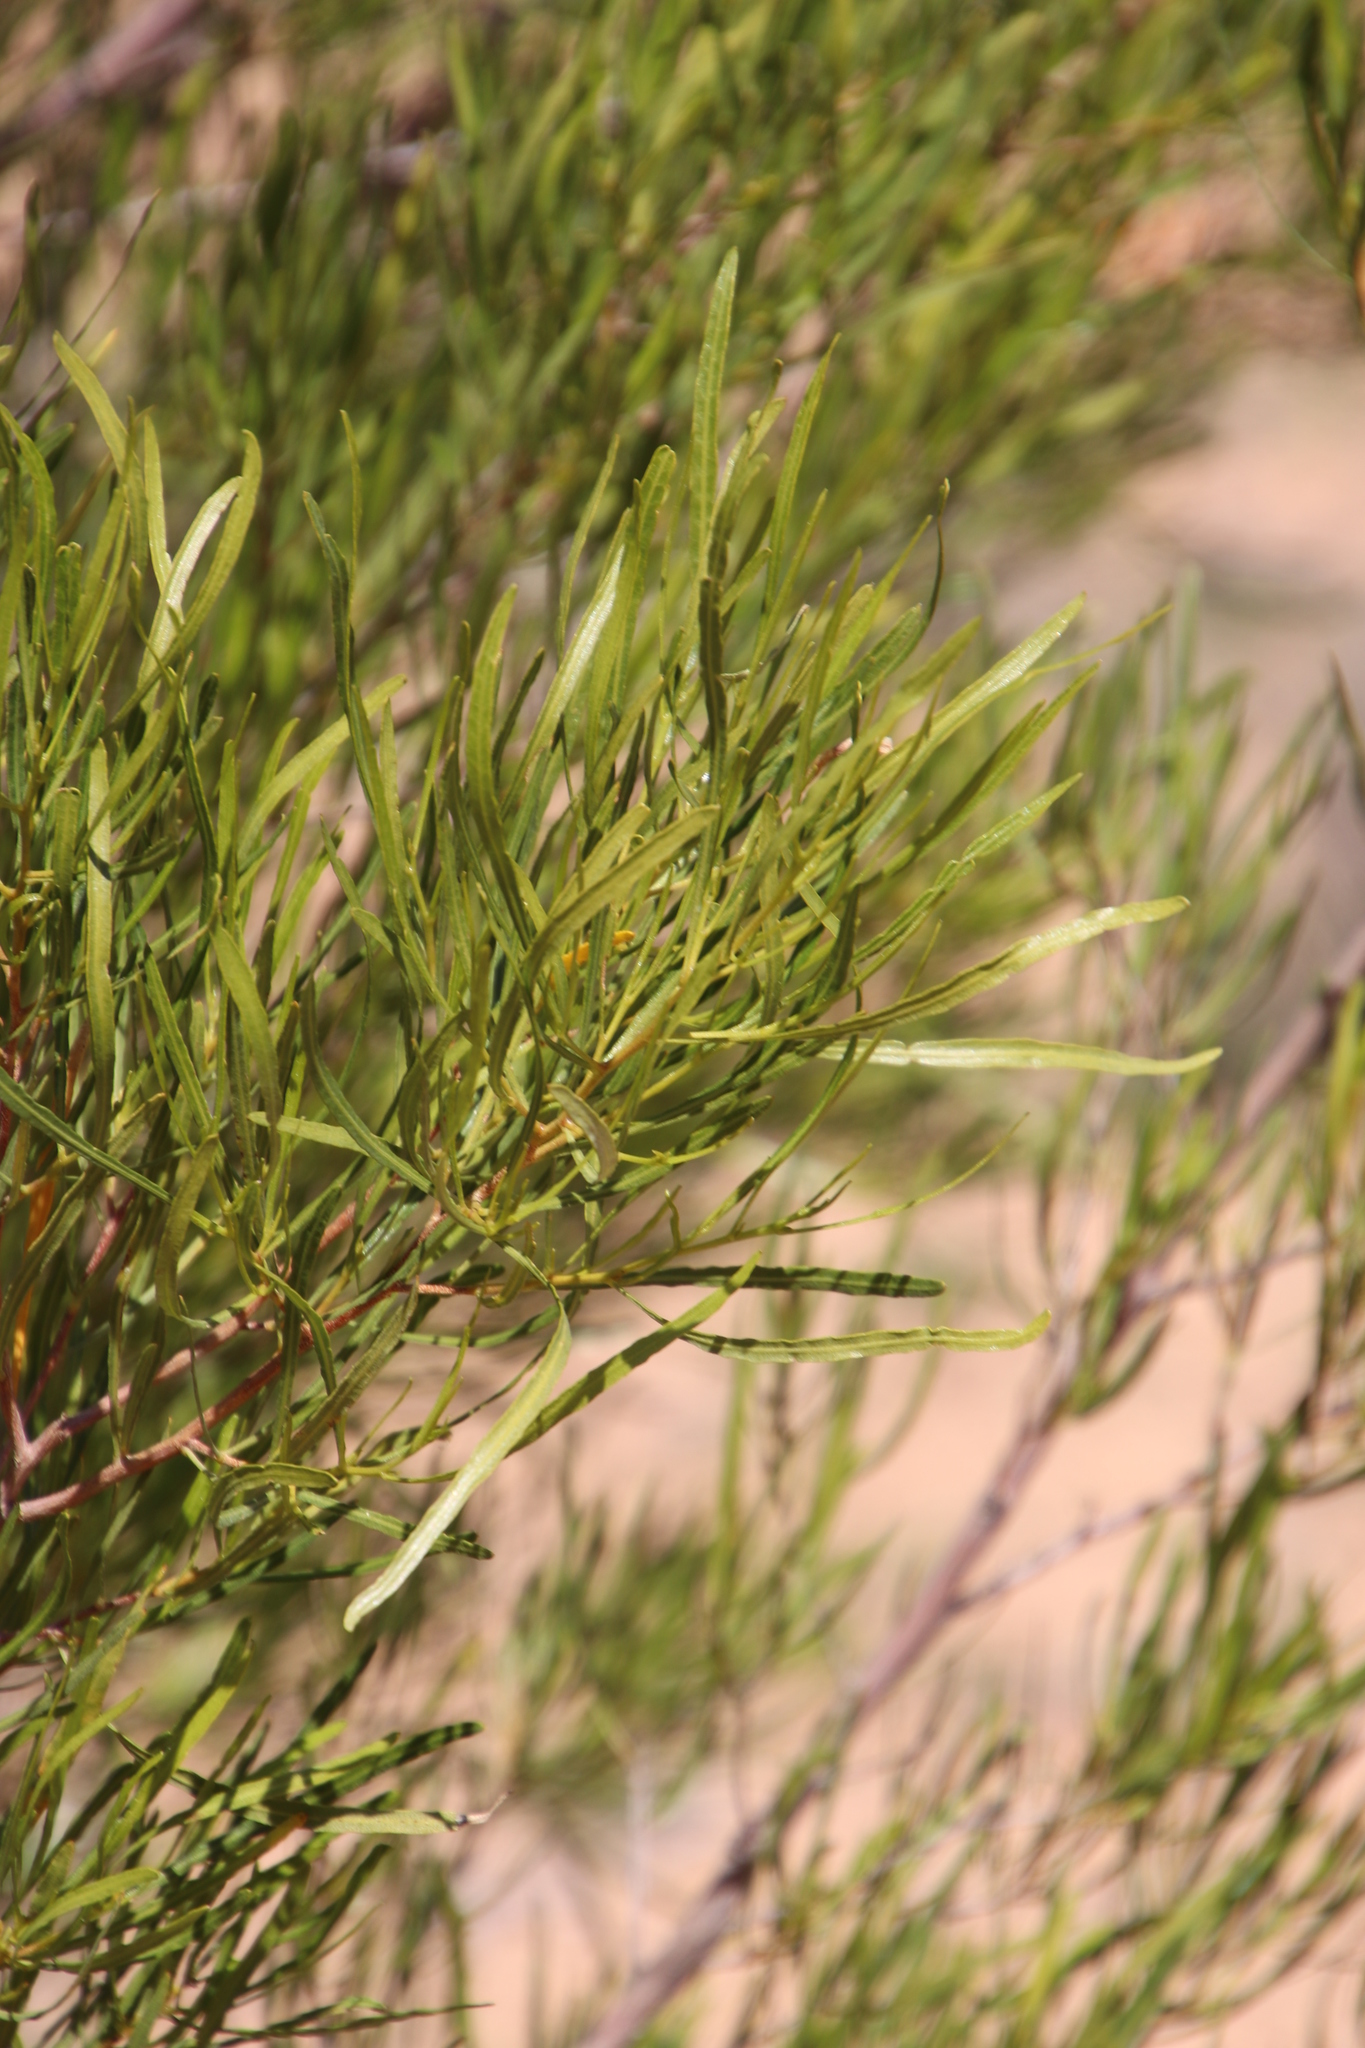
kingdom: Plantae
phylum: Tracheophyta
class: Magnoliopsida
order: Sapindales
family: Sapindaceae
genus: Dodonaea
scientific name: Dodonaea viscosa
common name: Hopbush
